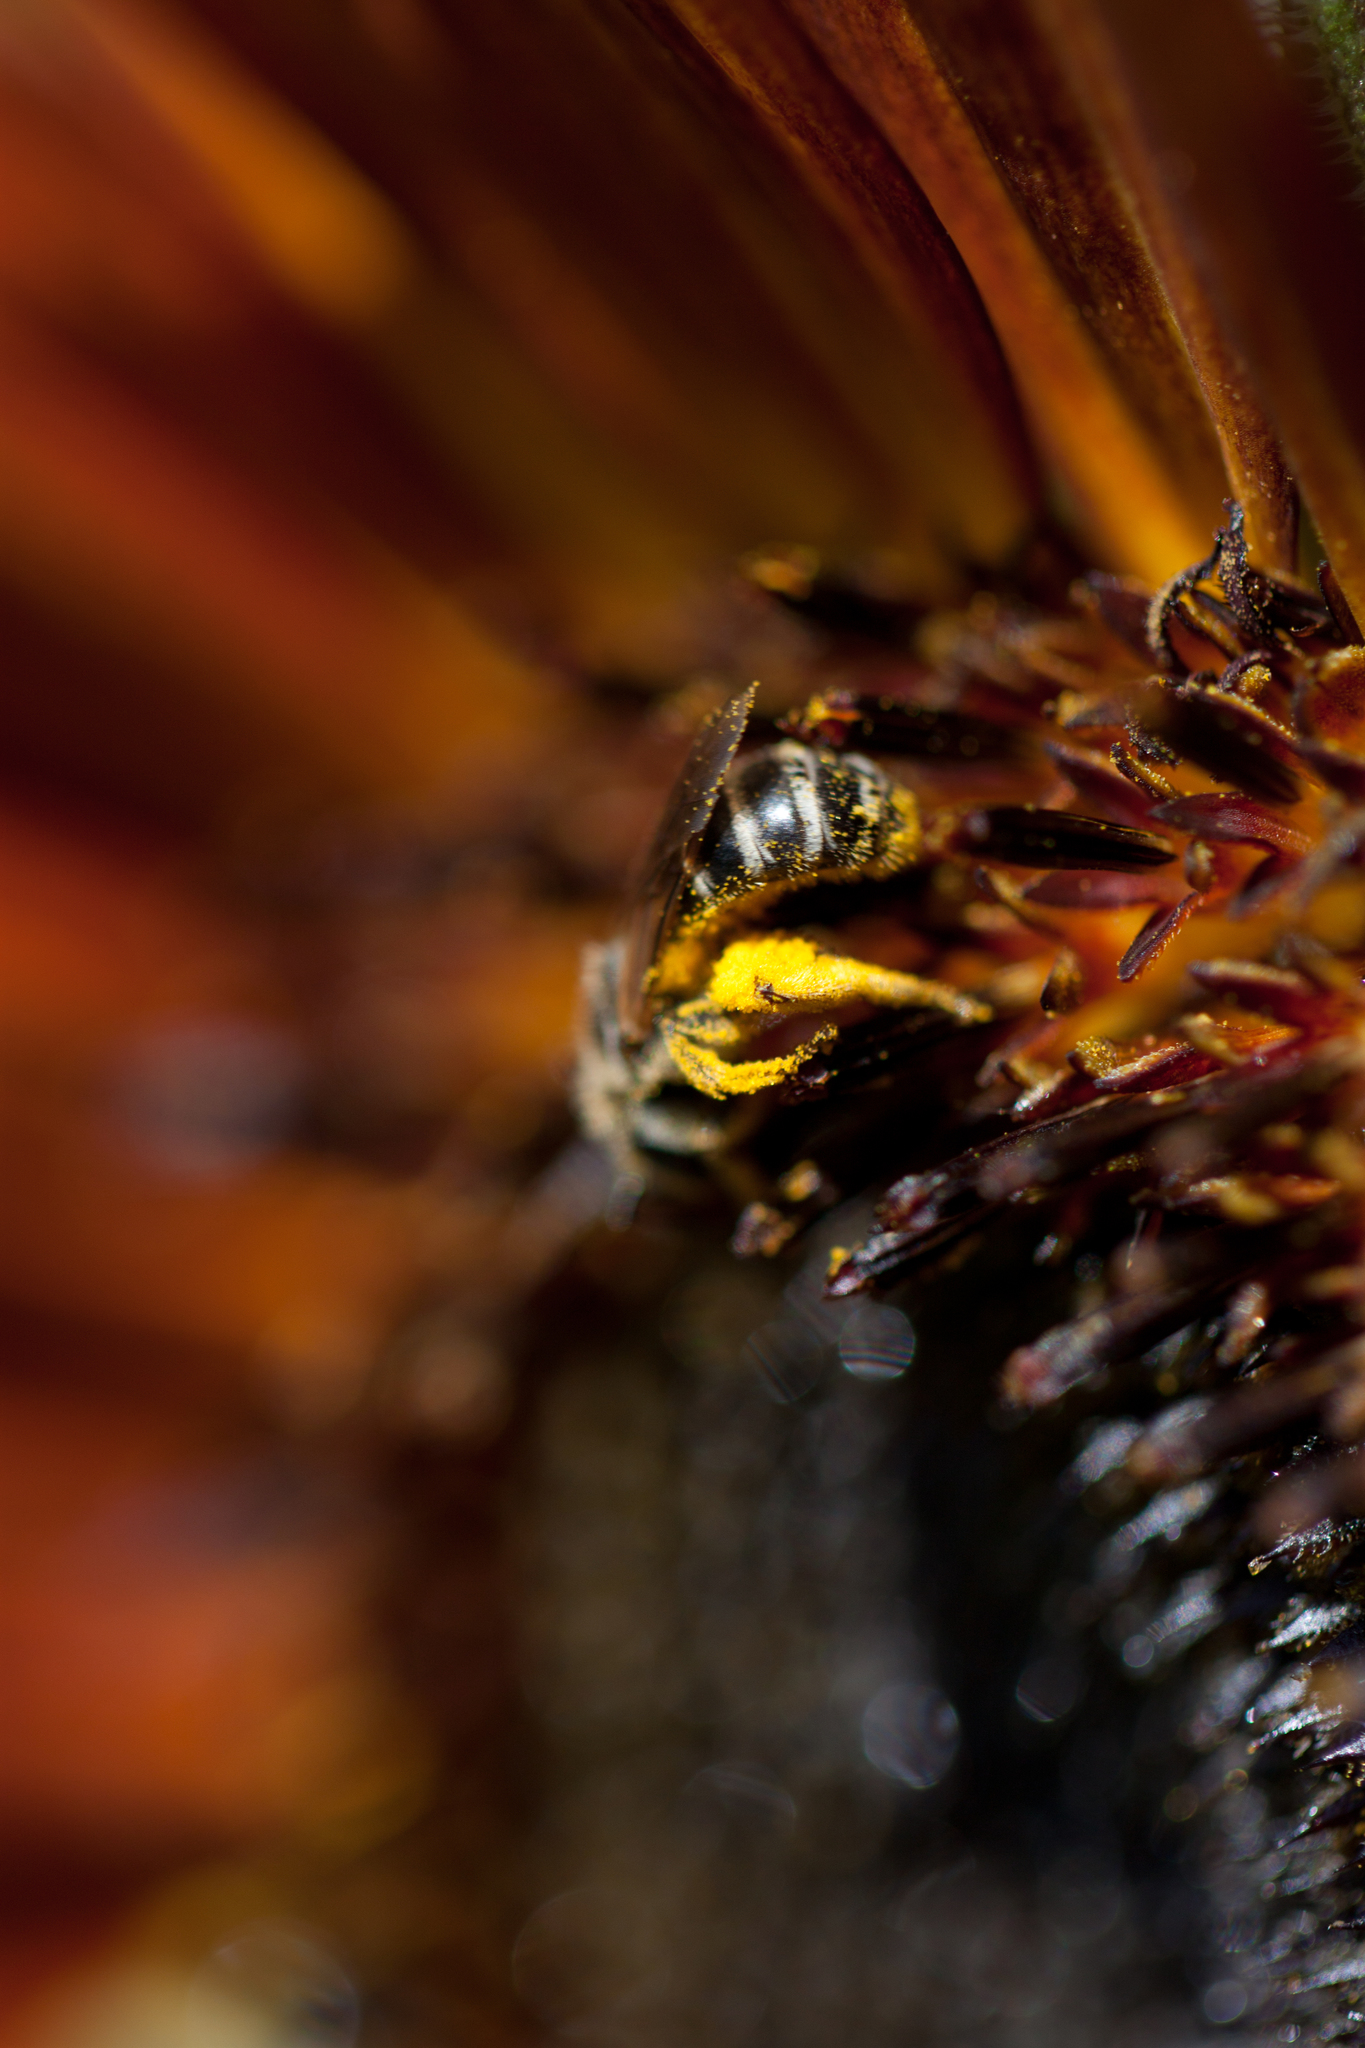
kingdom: Animalia
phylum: Arthropoda
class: Insecta
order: Hymenoptera
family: Halictidae
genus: Halictus
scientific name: Halictus ligatus
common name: Ligated furrow bee
